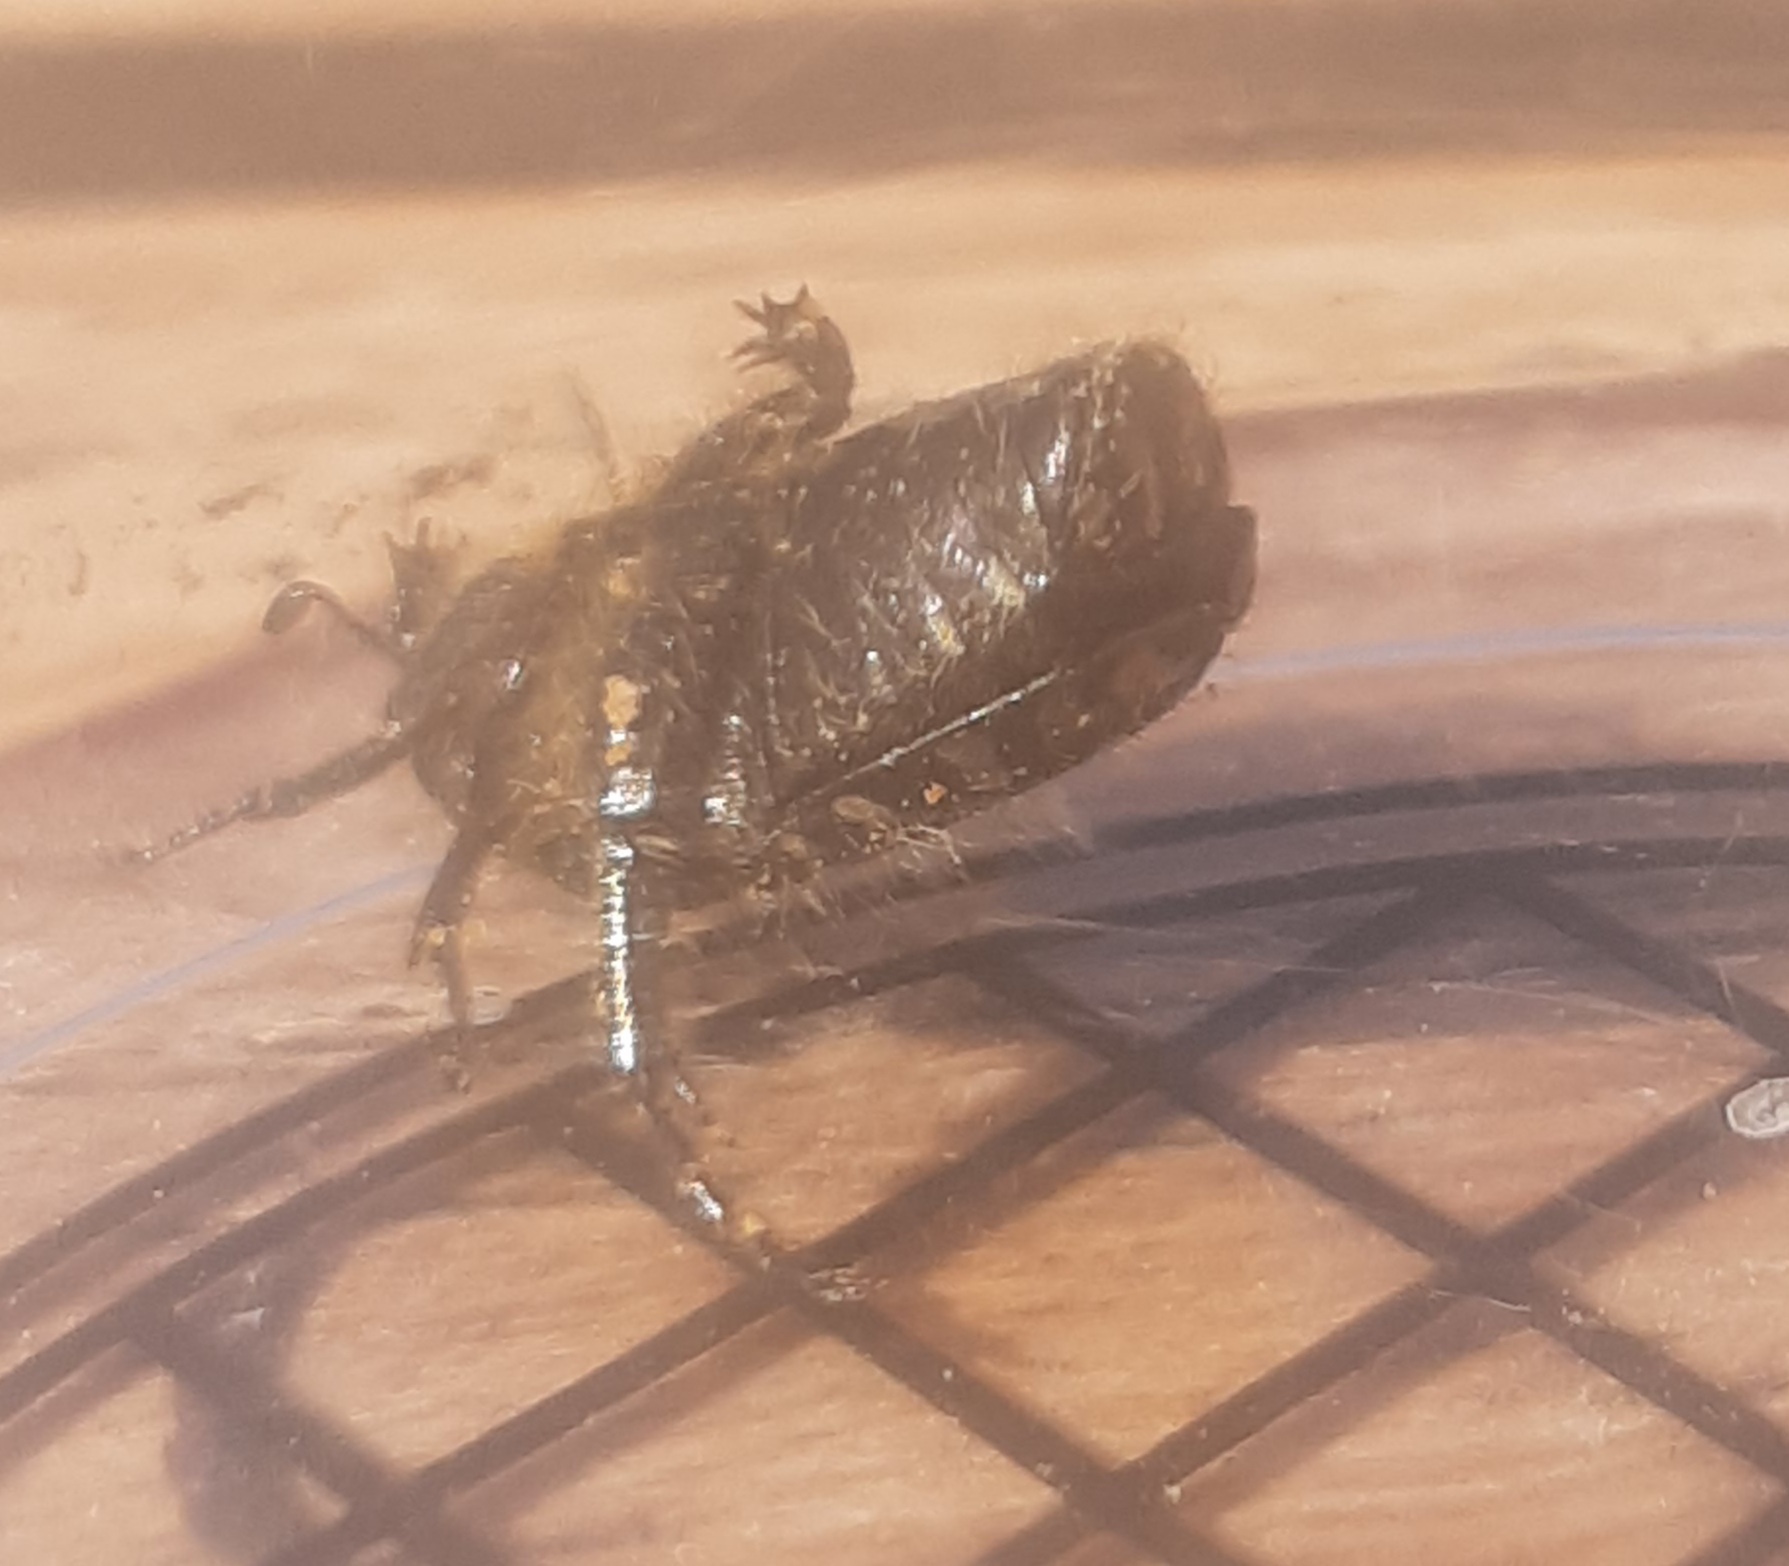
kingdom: Animalia
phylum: Arthropoda
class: Insecta
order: Coleoptera
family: Scarabaeidae
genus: Oxythyrea
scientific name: Oxythyrea funesta
